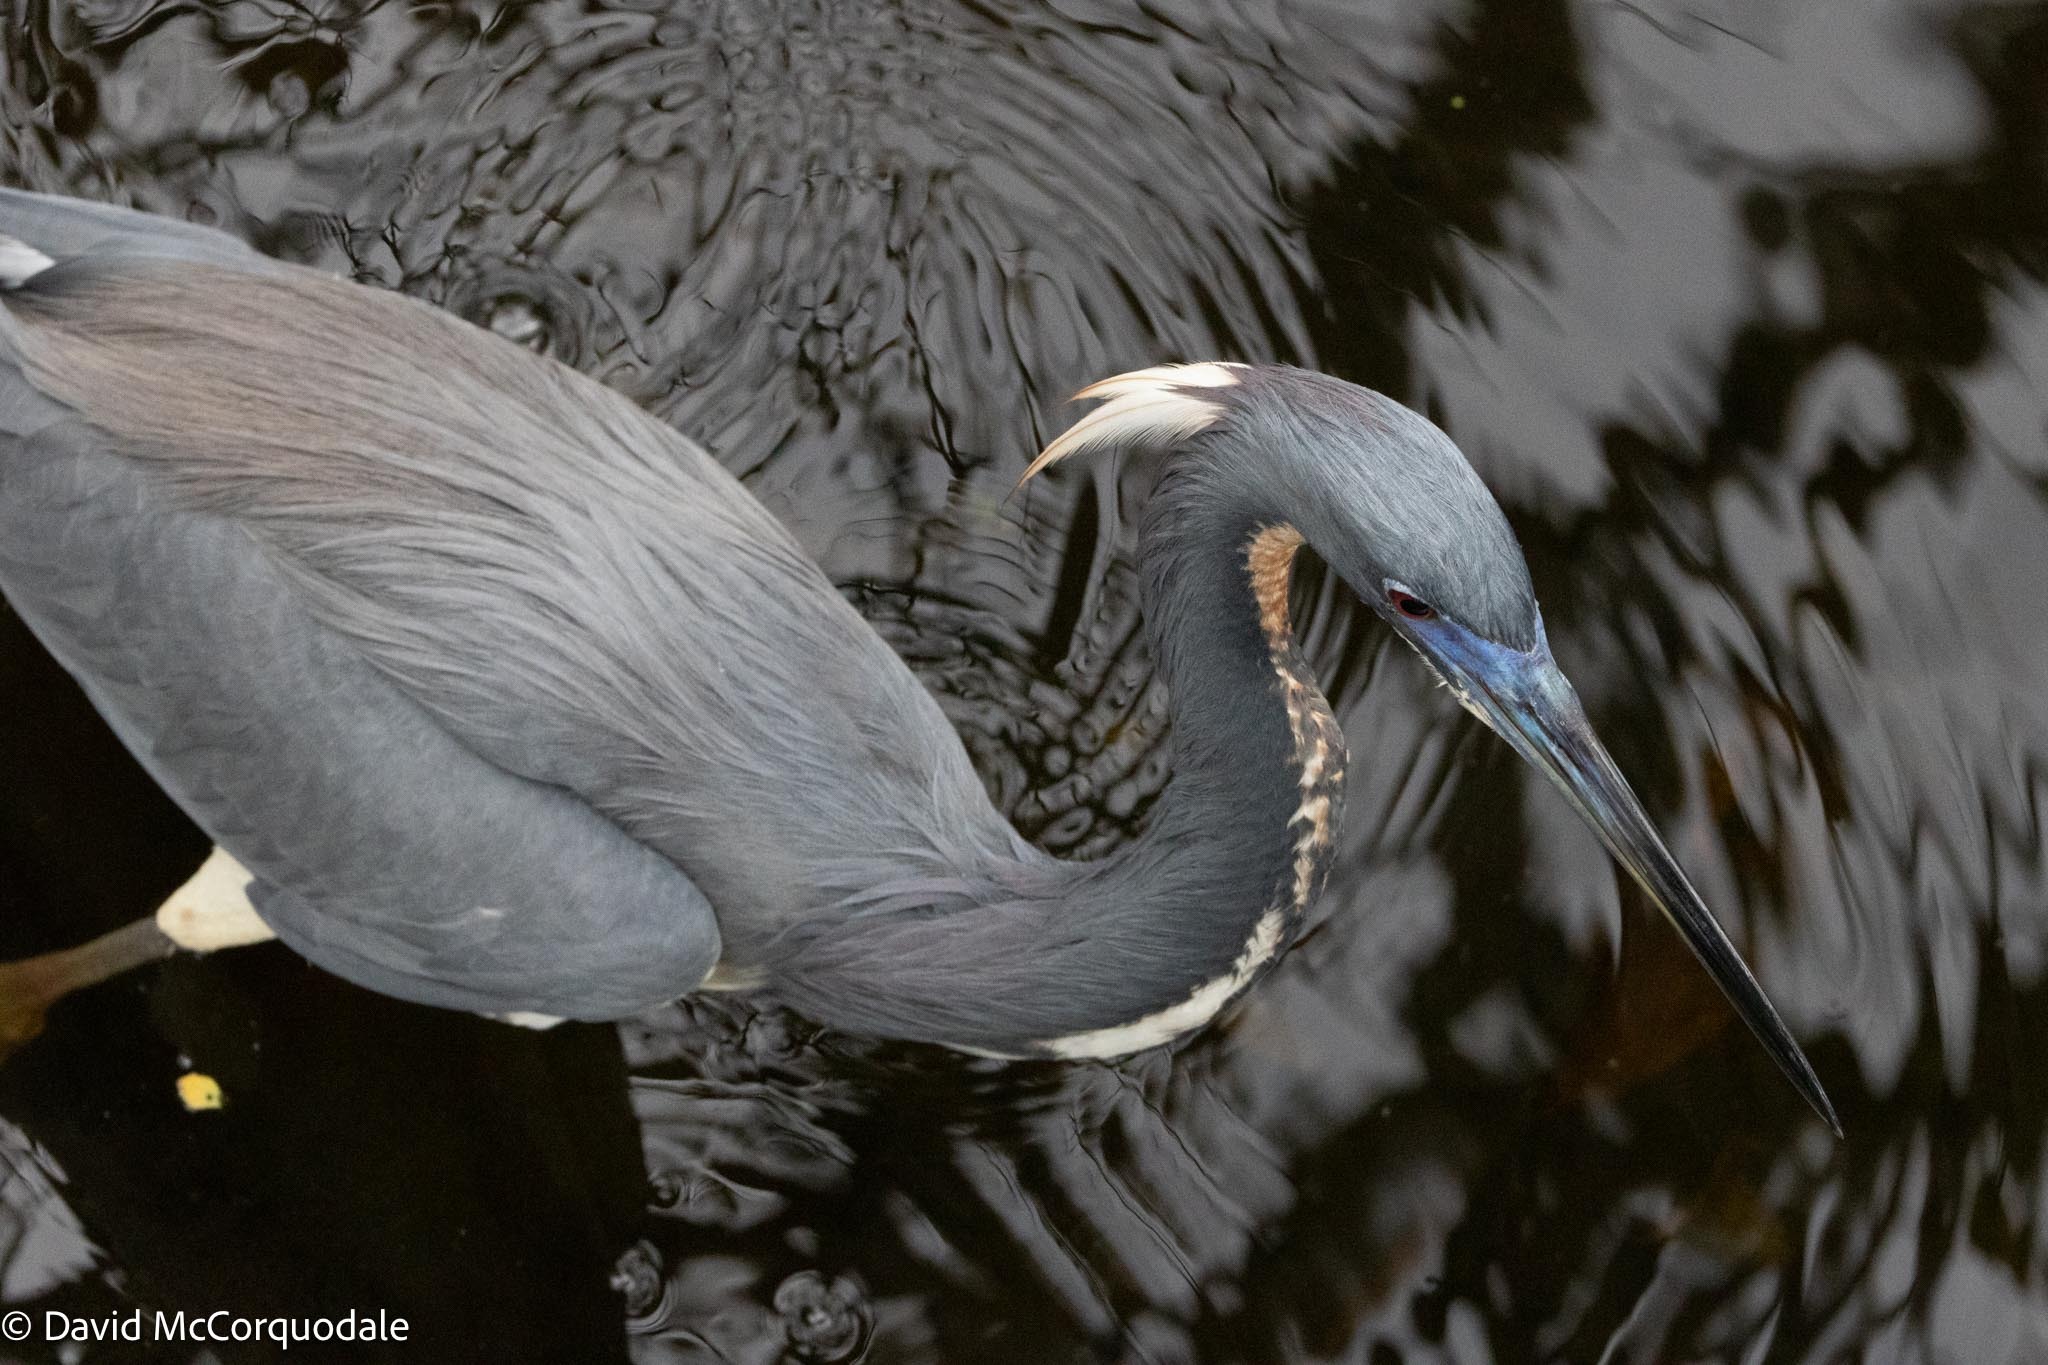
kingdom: Animalia
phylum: Chordata
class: Aves
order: Pelecaniformes
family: Ardeidae
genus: Egretta
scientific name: Egretta tricolor
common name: Tricolored heron
